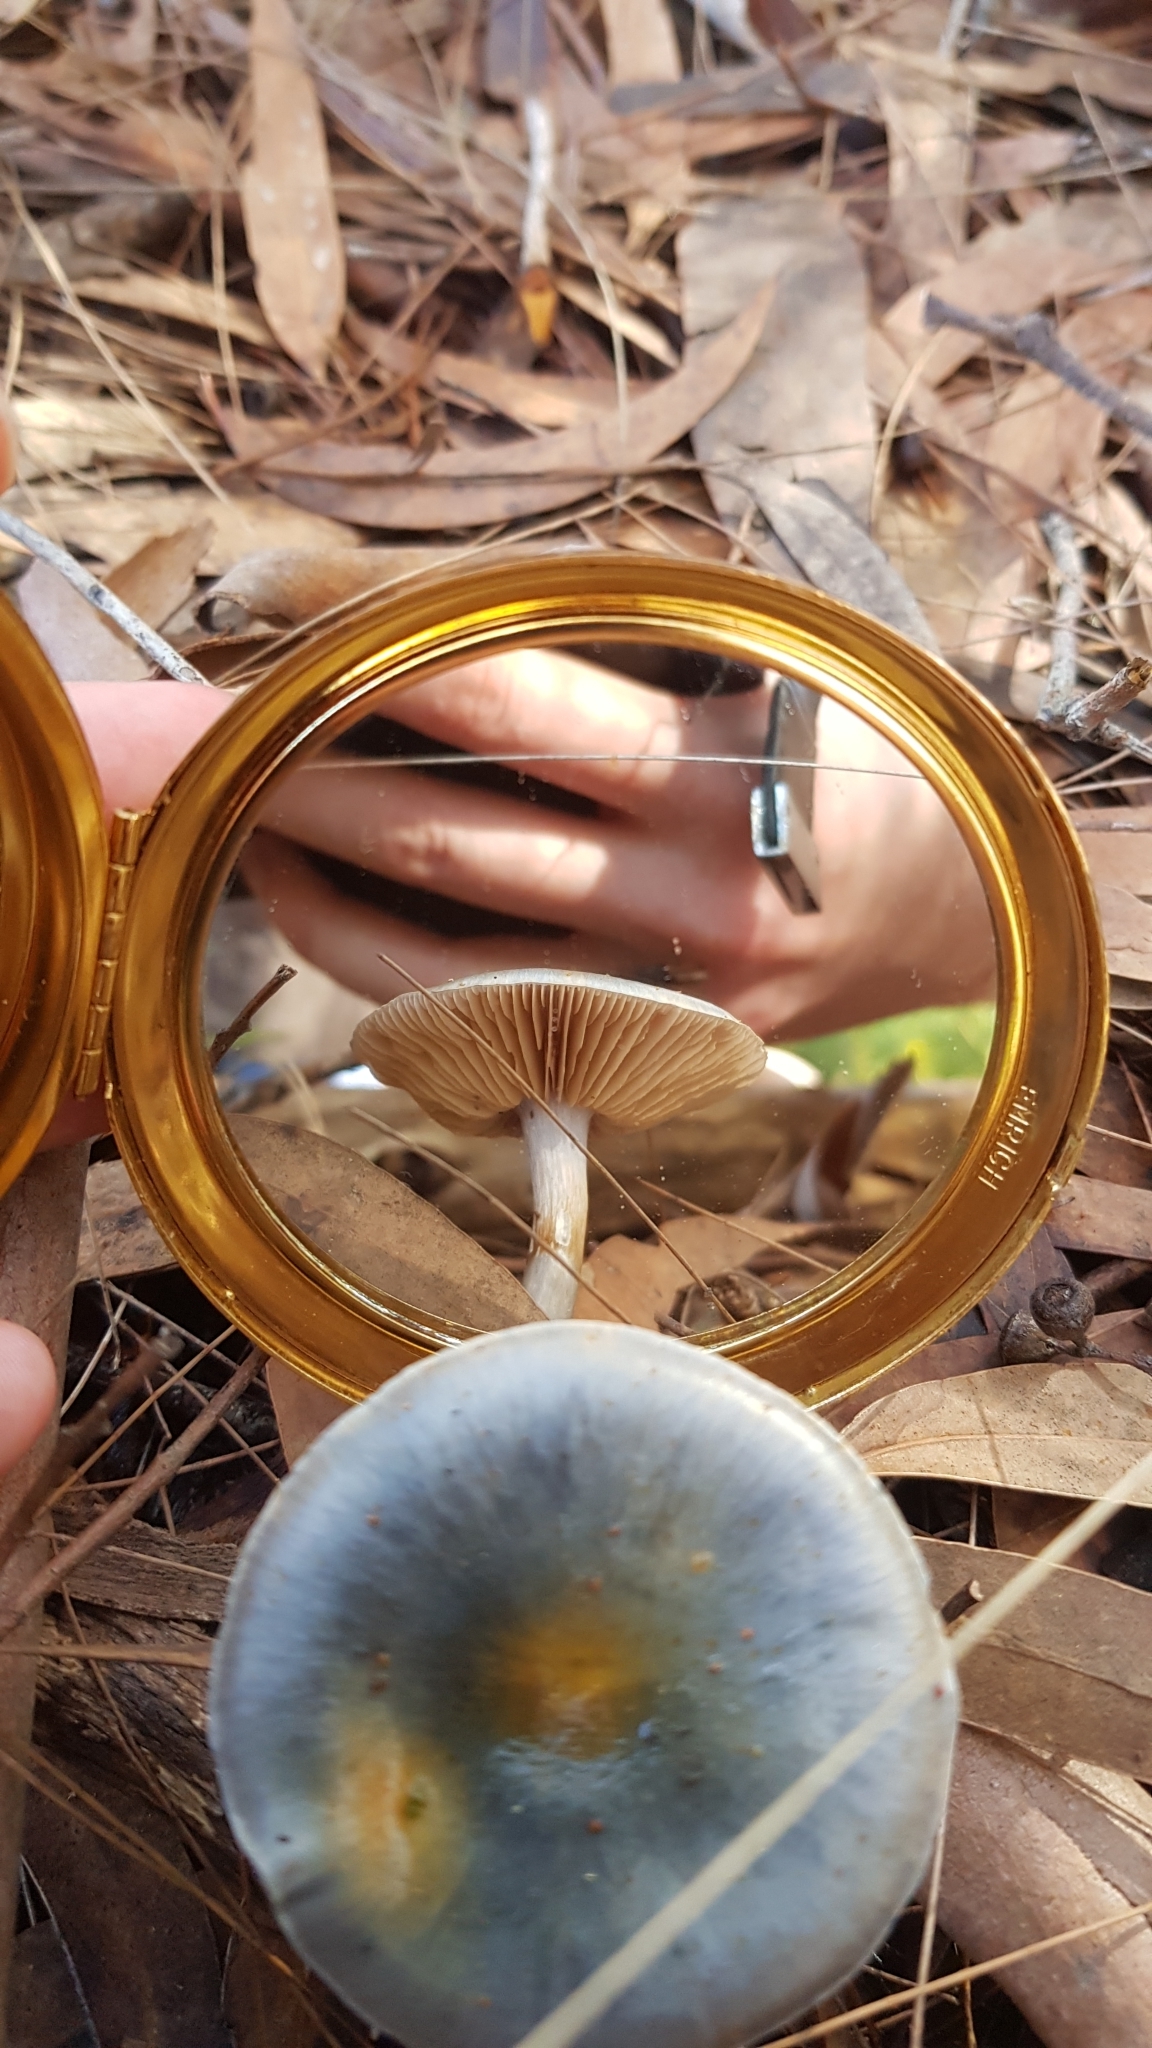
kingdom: Fungi
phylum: Basidiomycota
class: Agaricomycetes
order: Agaricales
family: Cortinariaceae
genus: Cortinarius
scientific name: Cortinarius rotundisporus
